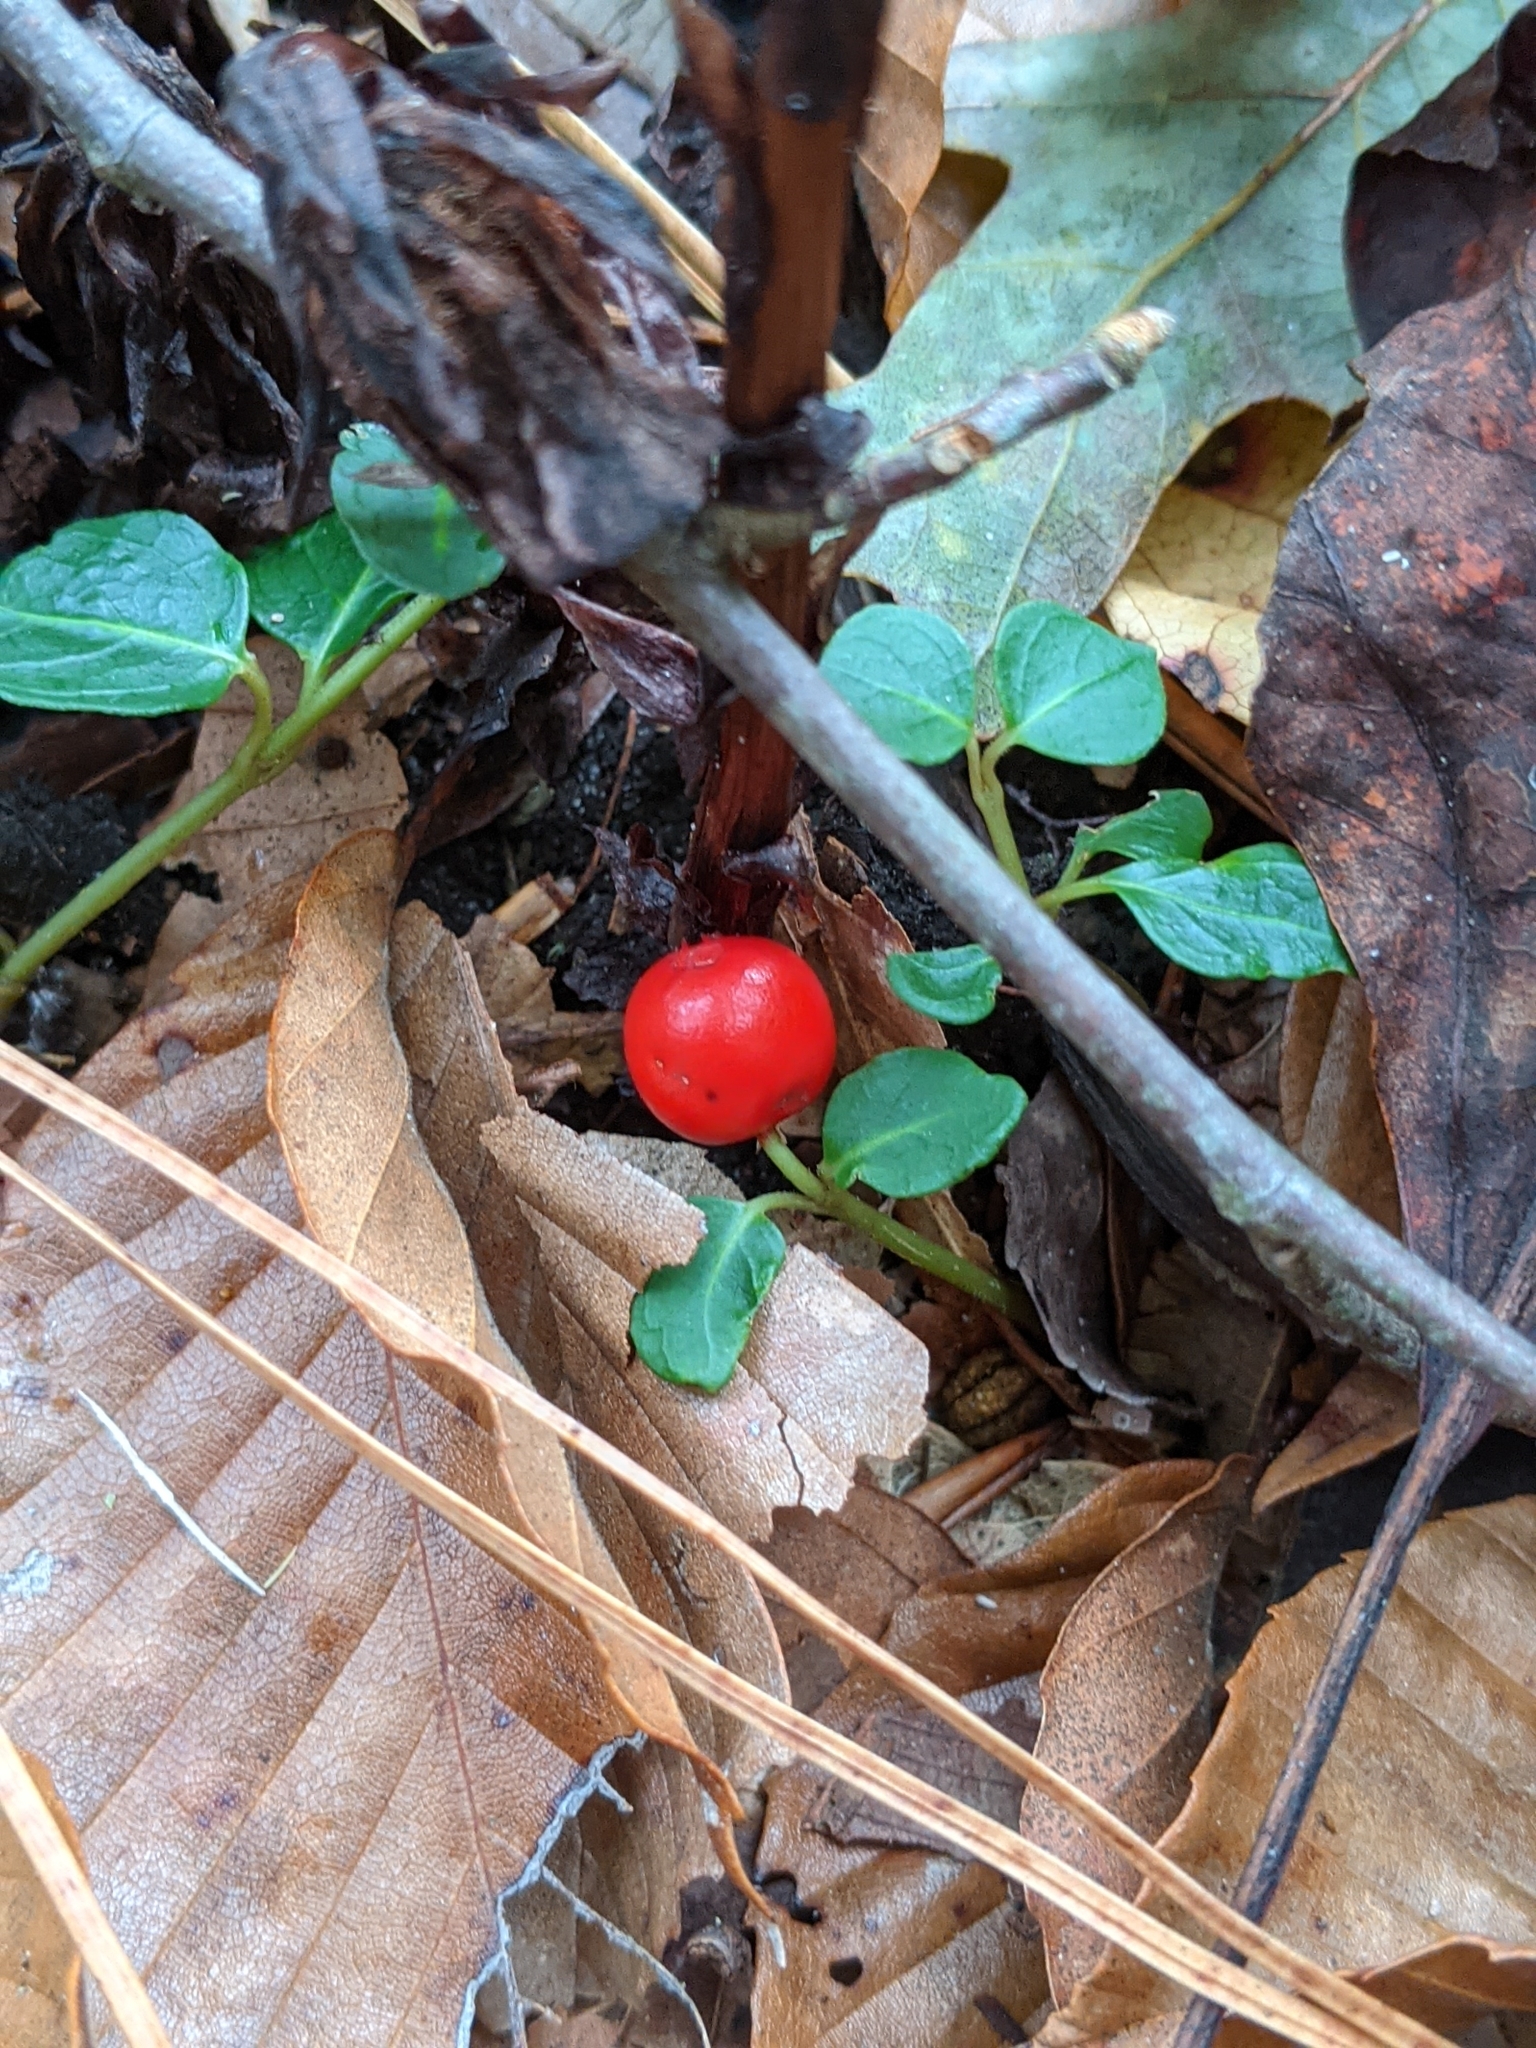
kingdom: Plantae
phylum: Tracheophyta
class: Magnoliopsida
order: Gentianales
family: Rubiaceae
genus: Mitchella
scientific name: Mitchella repens
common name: Partridge-berry
